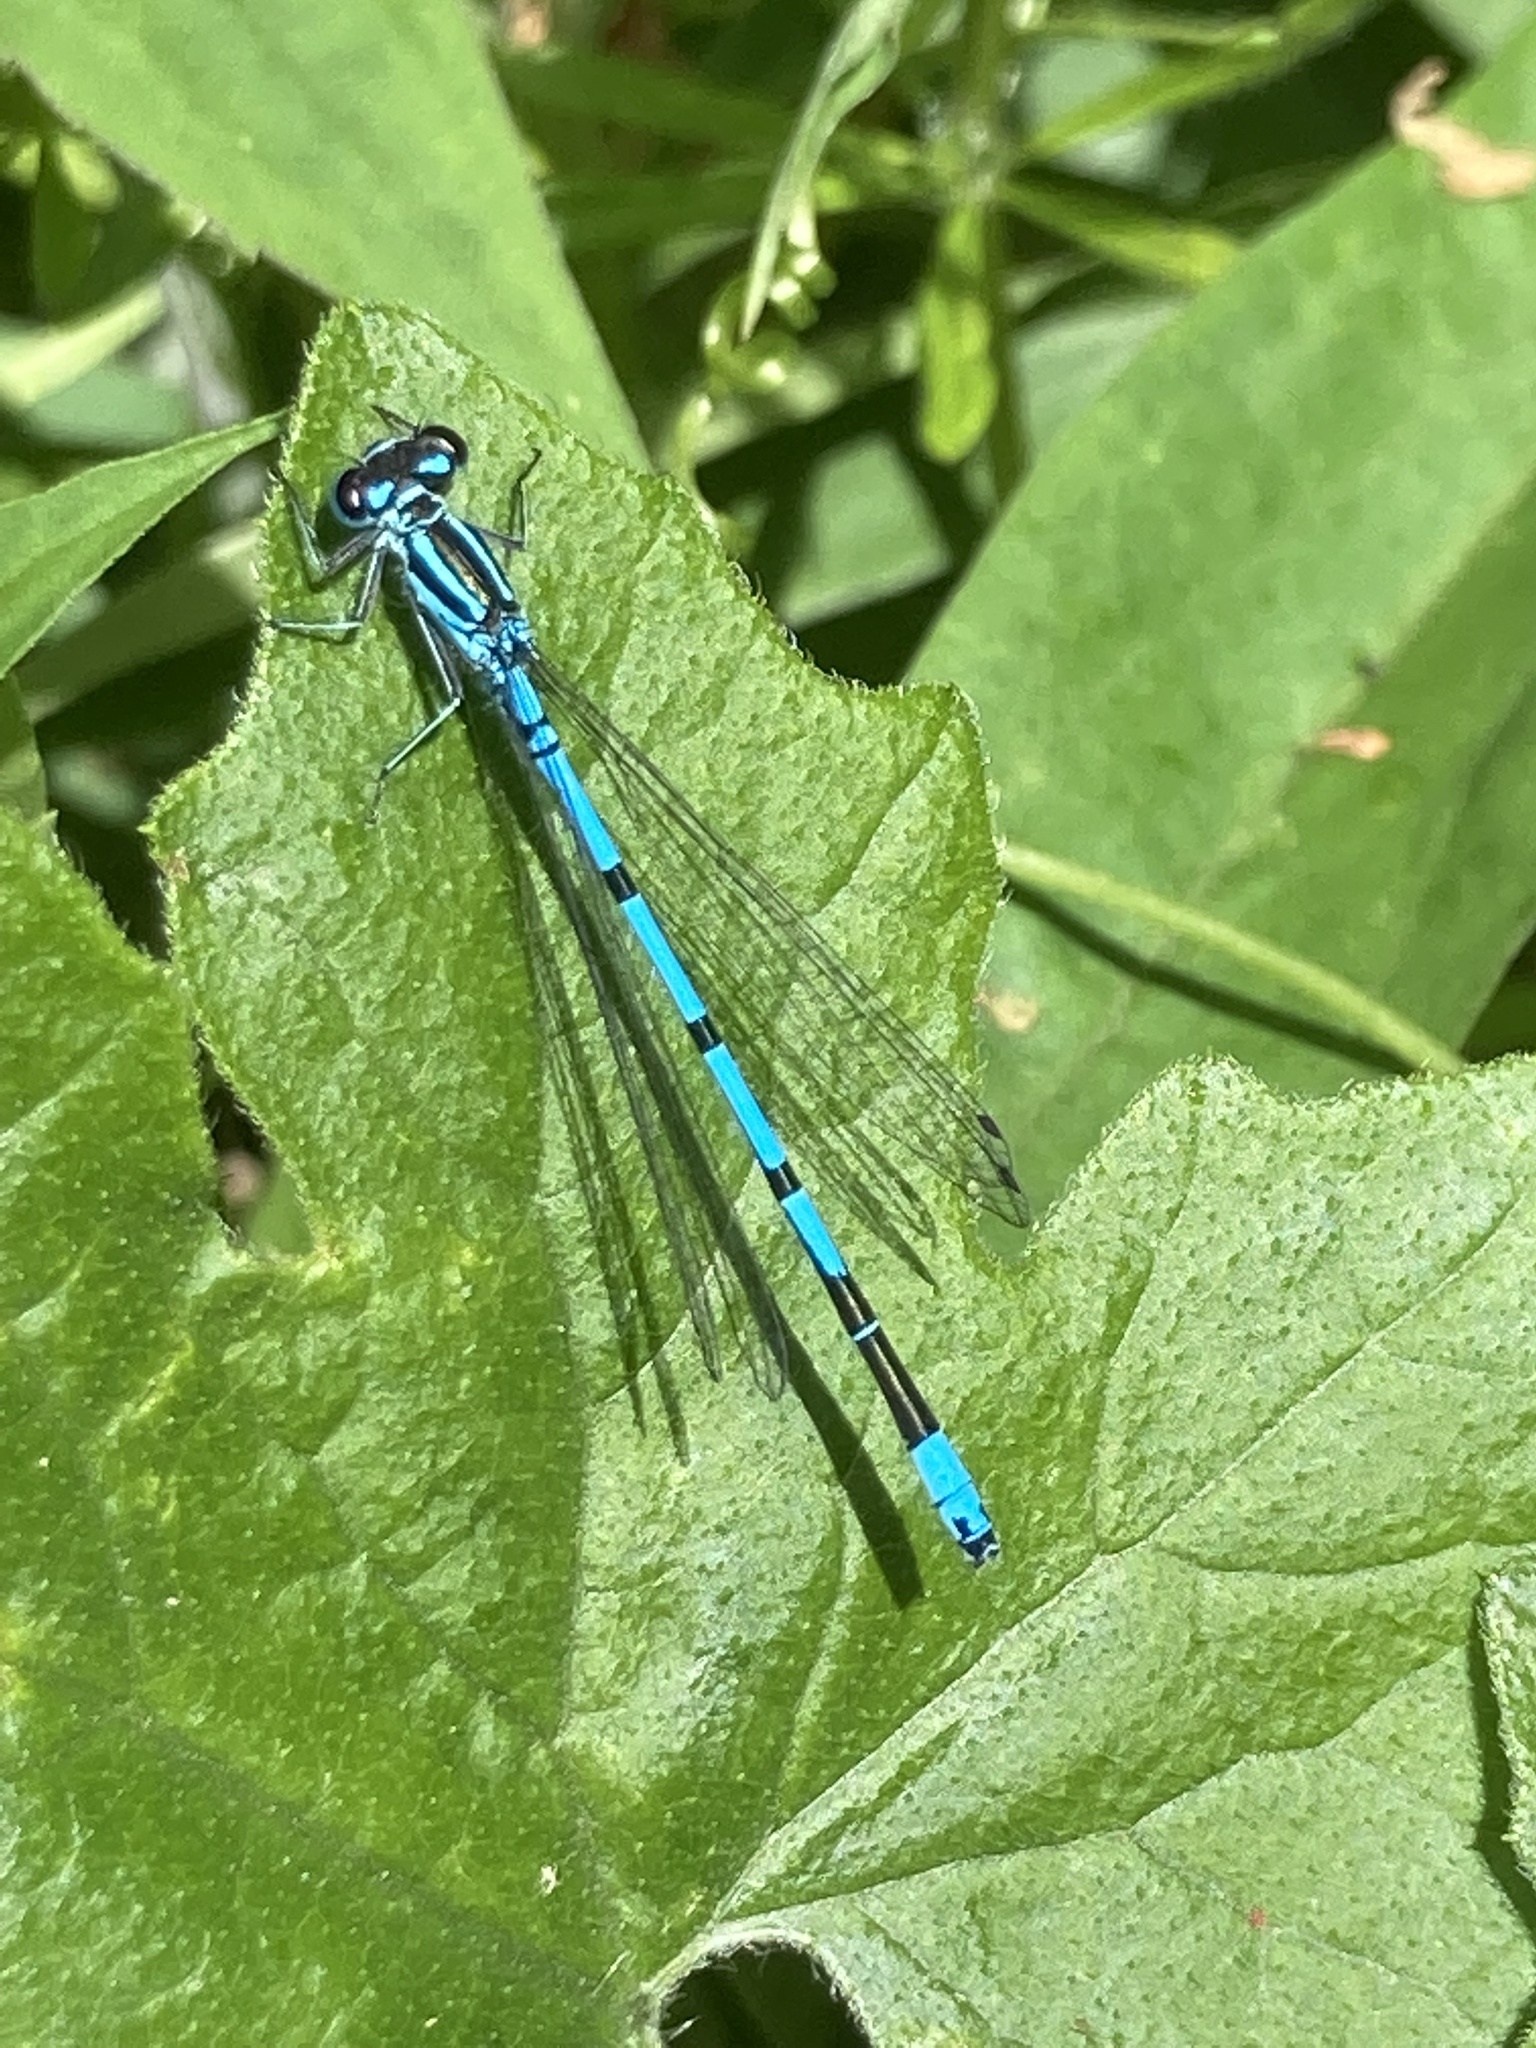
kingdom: Animalia
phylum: Arthropoda
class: Insecta
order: Odonata
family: Coenagrionidae
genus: Coenagrion
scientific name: Coenagrion puella
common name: Azure damselfly
